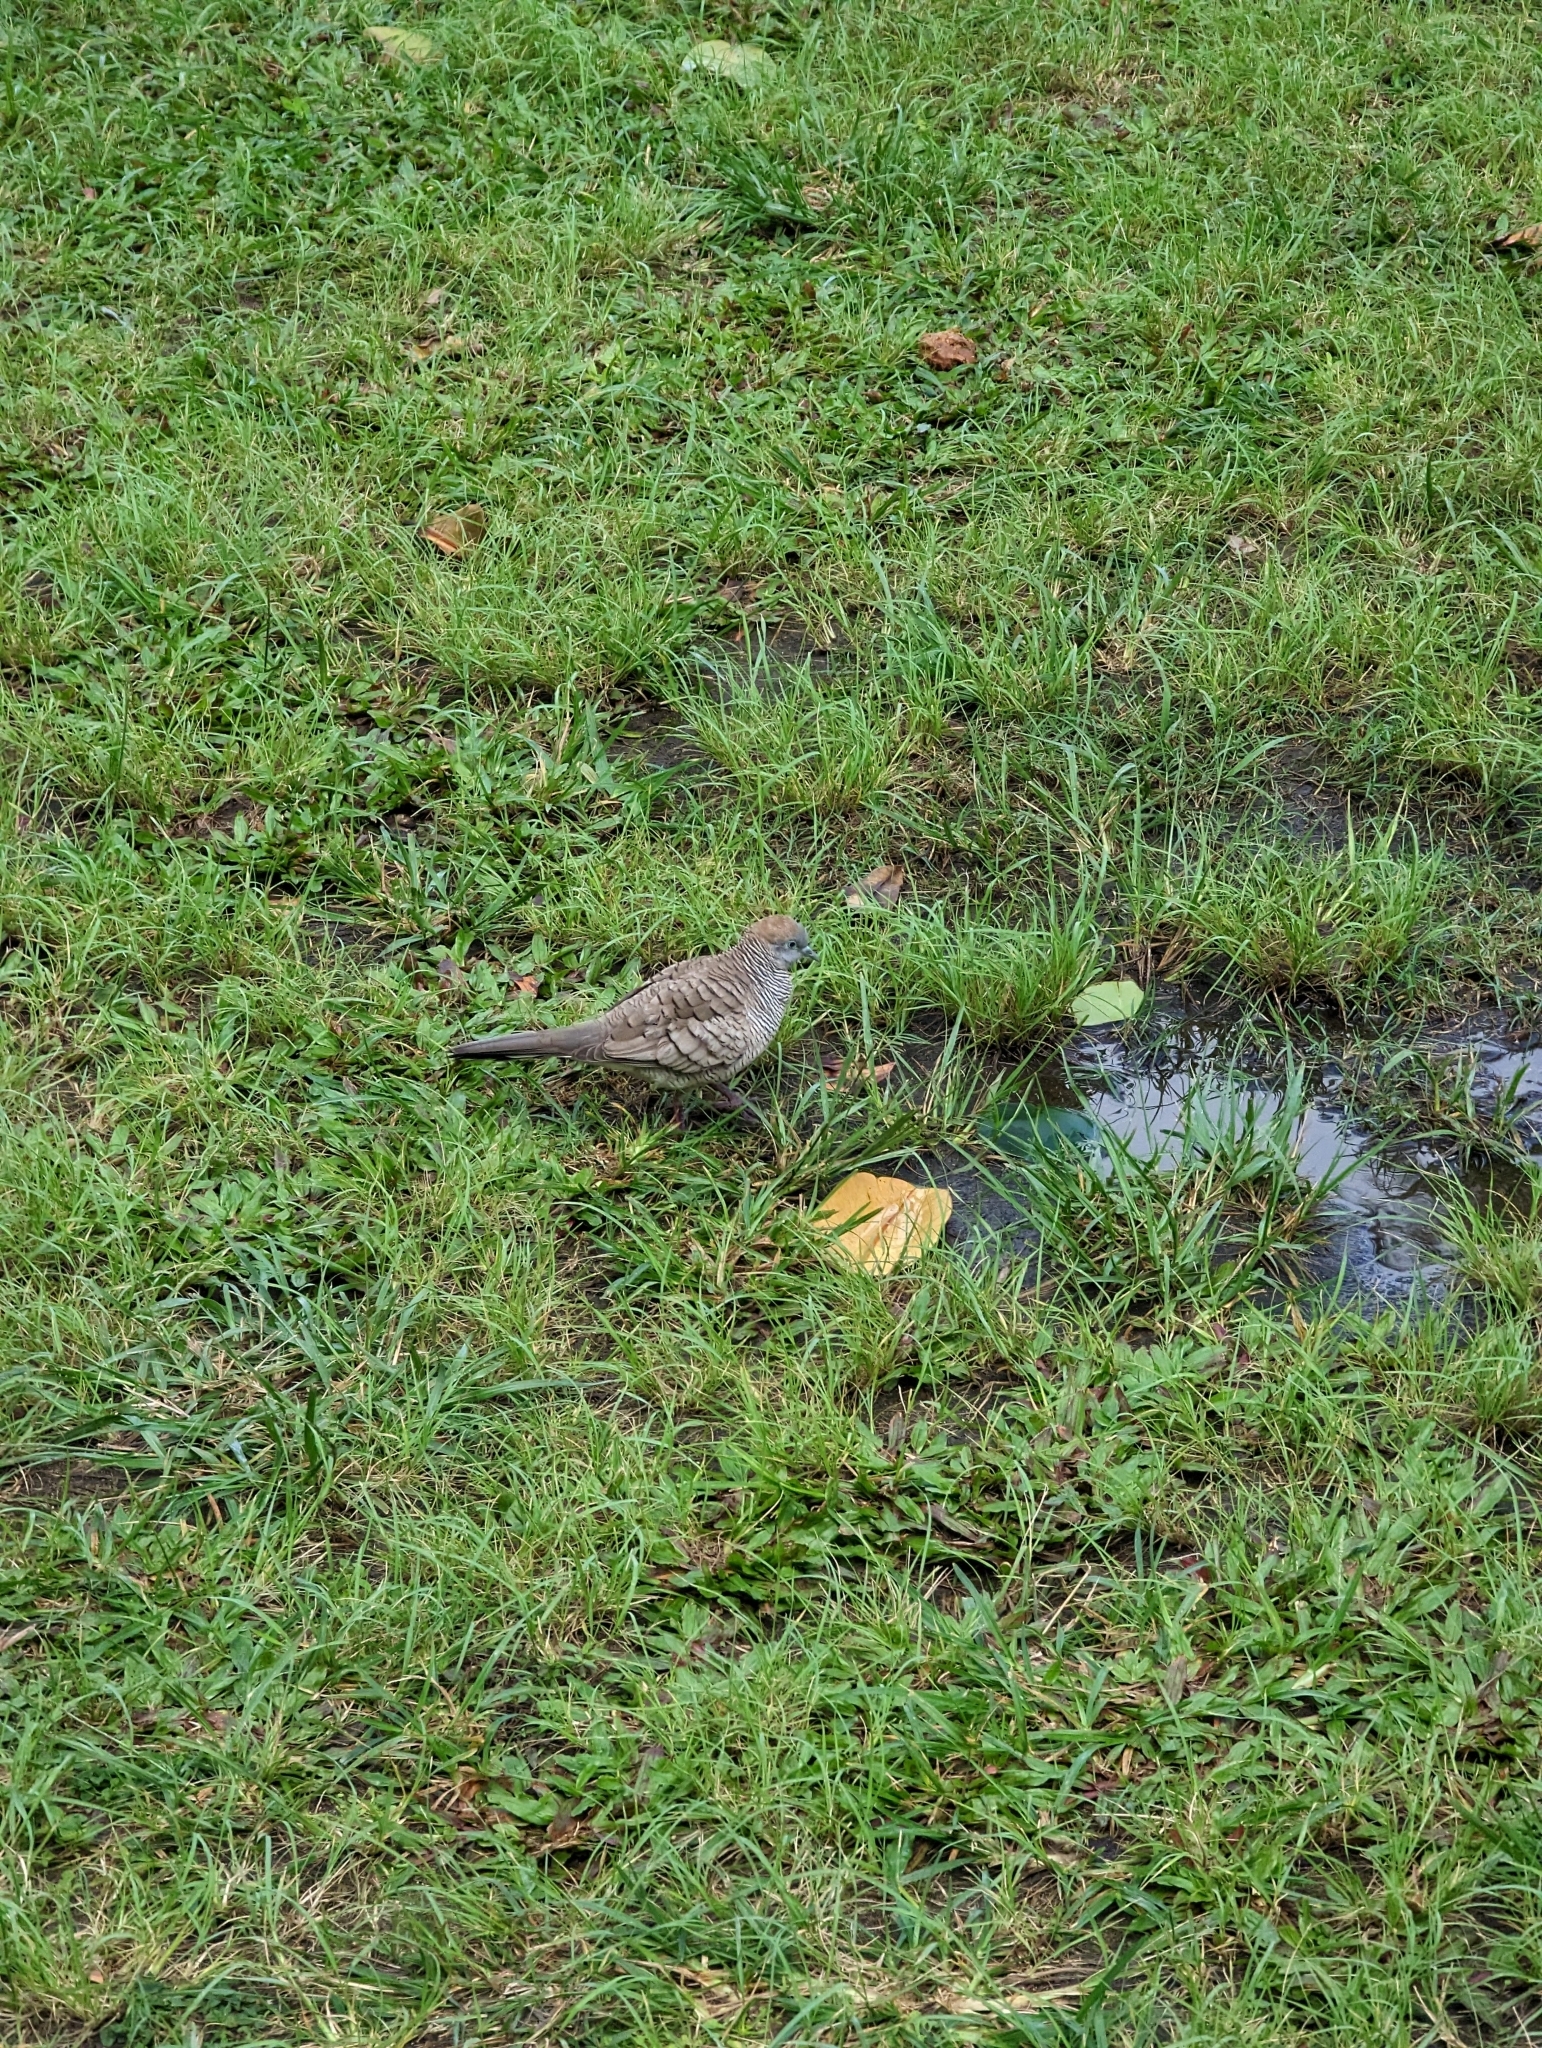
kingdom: Animalia
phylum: Chordata
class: Aves
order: Columbiformes
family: Columbidae
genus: Geopelia
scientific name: Geopelia striata
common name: Zebra dove
